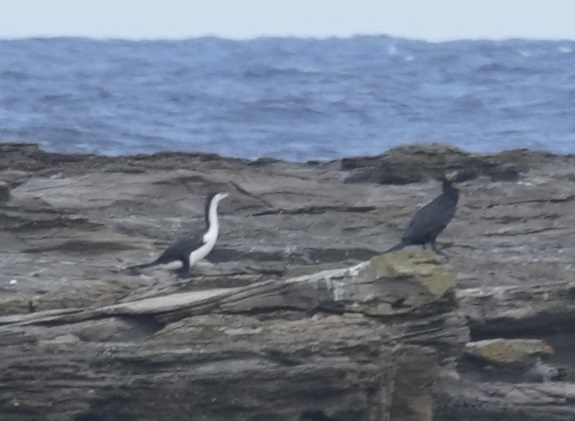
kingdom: Animalia
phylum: Chordata
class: Aves
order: Suliformes
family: Phalacrocoracidae
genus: Phalacrocorax
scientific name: Phalacrocorax varius
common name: Pied cormorant
